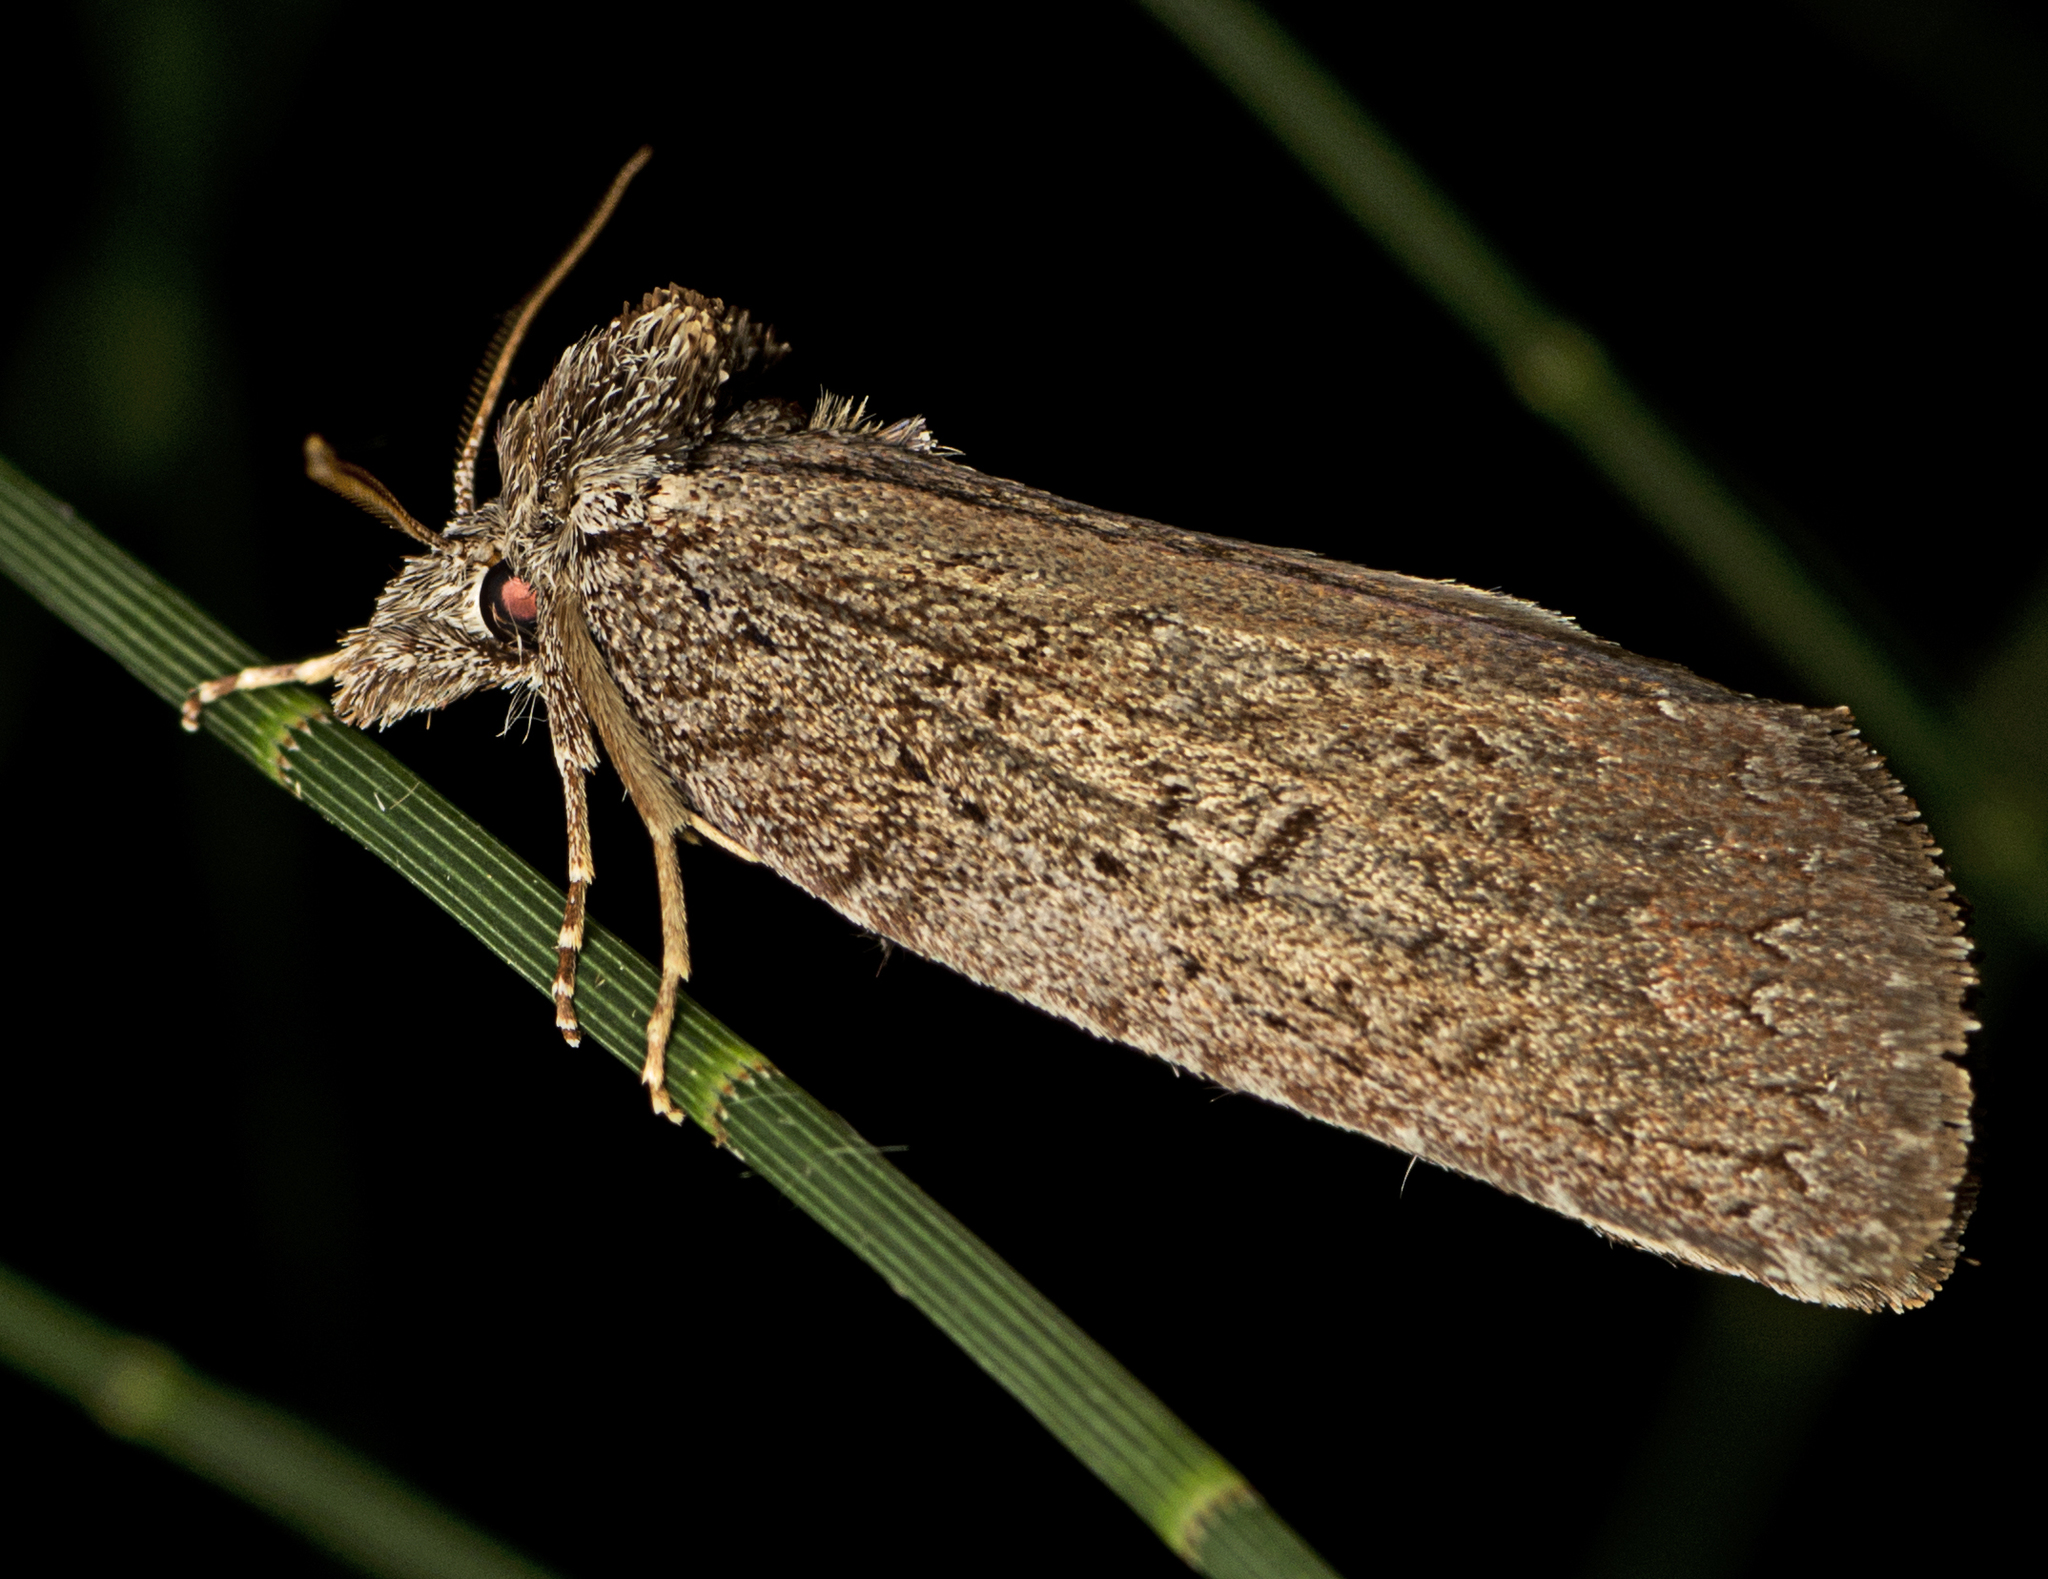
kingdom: Animalia
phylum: Arthropoda
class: Insecta
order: Lepidoptera
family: Notodontidae
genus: Gallaba
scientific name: Gallaba duplicata
